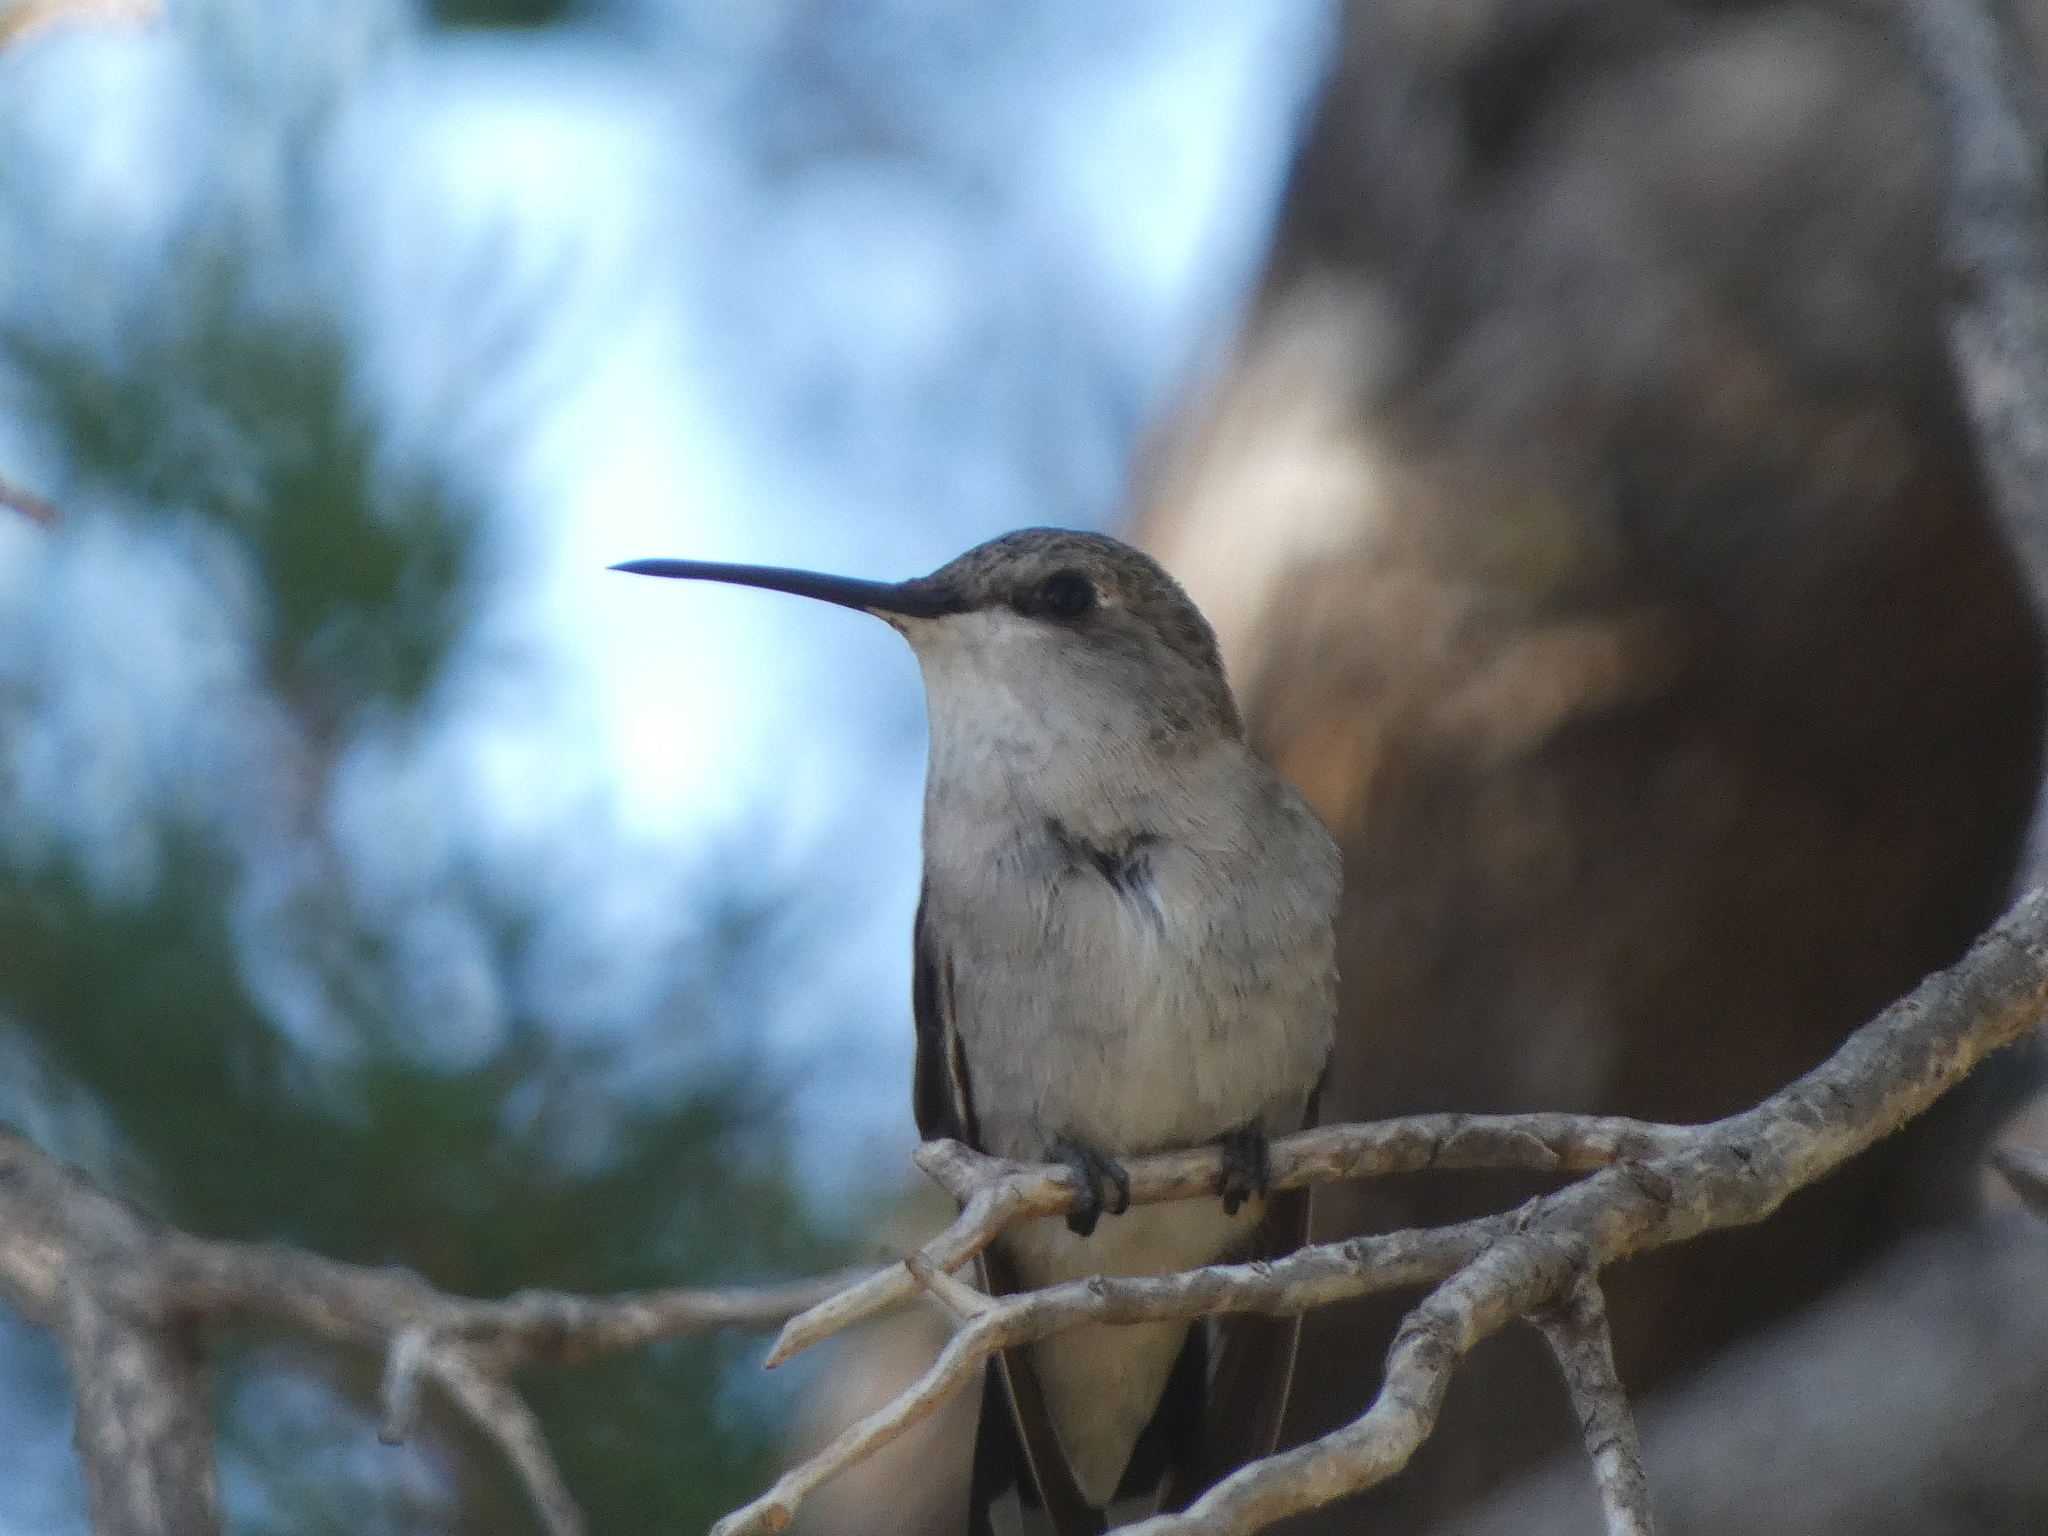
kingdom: Animalia
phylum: Chordata
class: Aves
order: Apodiformes
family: Trochilidae
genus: Archilochus
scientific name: Archilochus alexandri
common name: Black-chinned hummingbird
